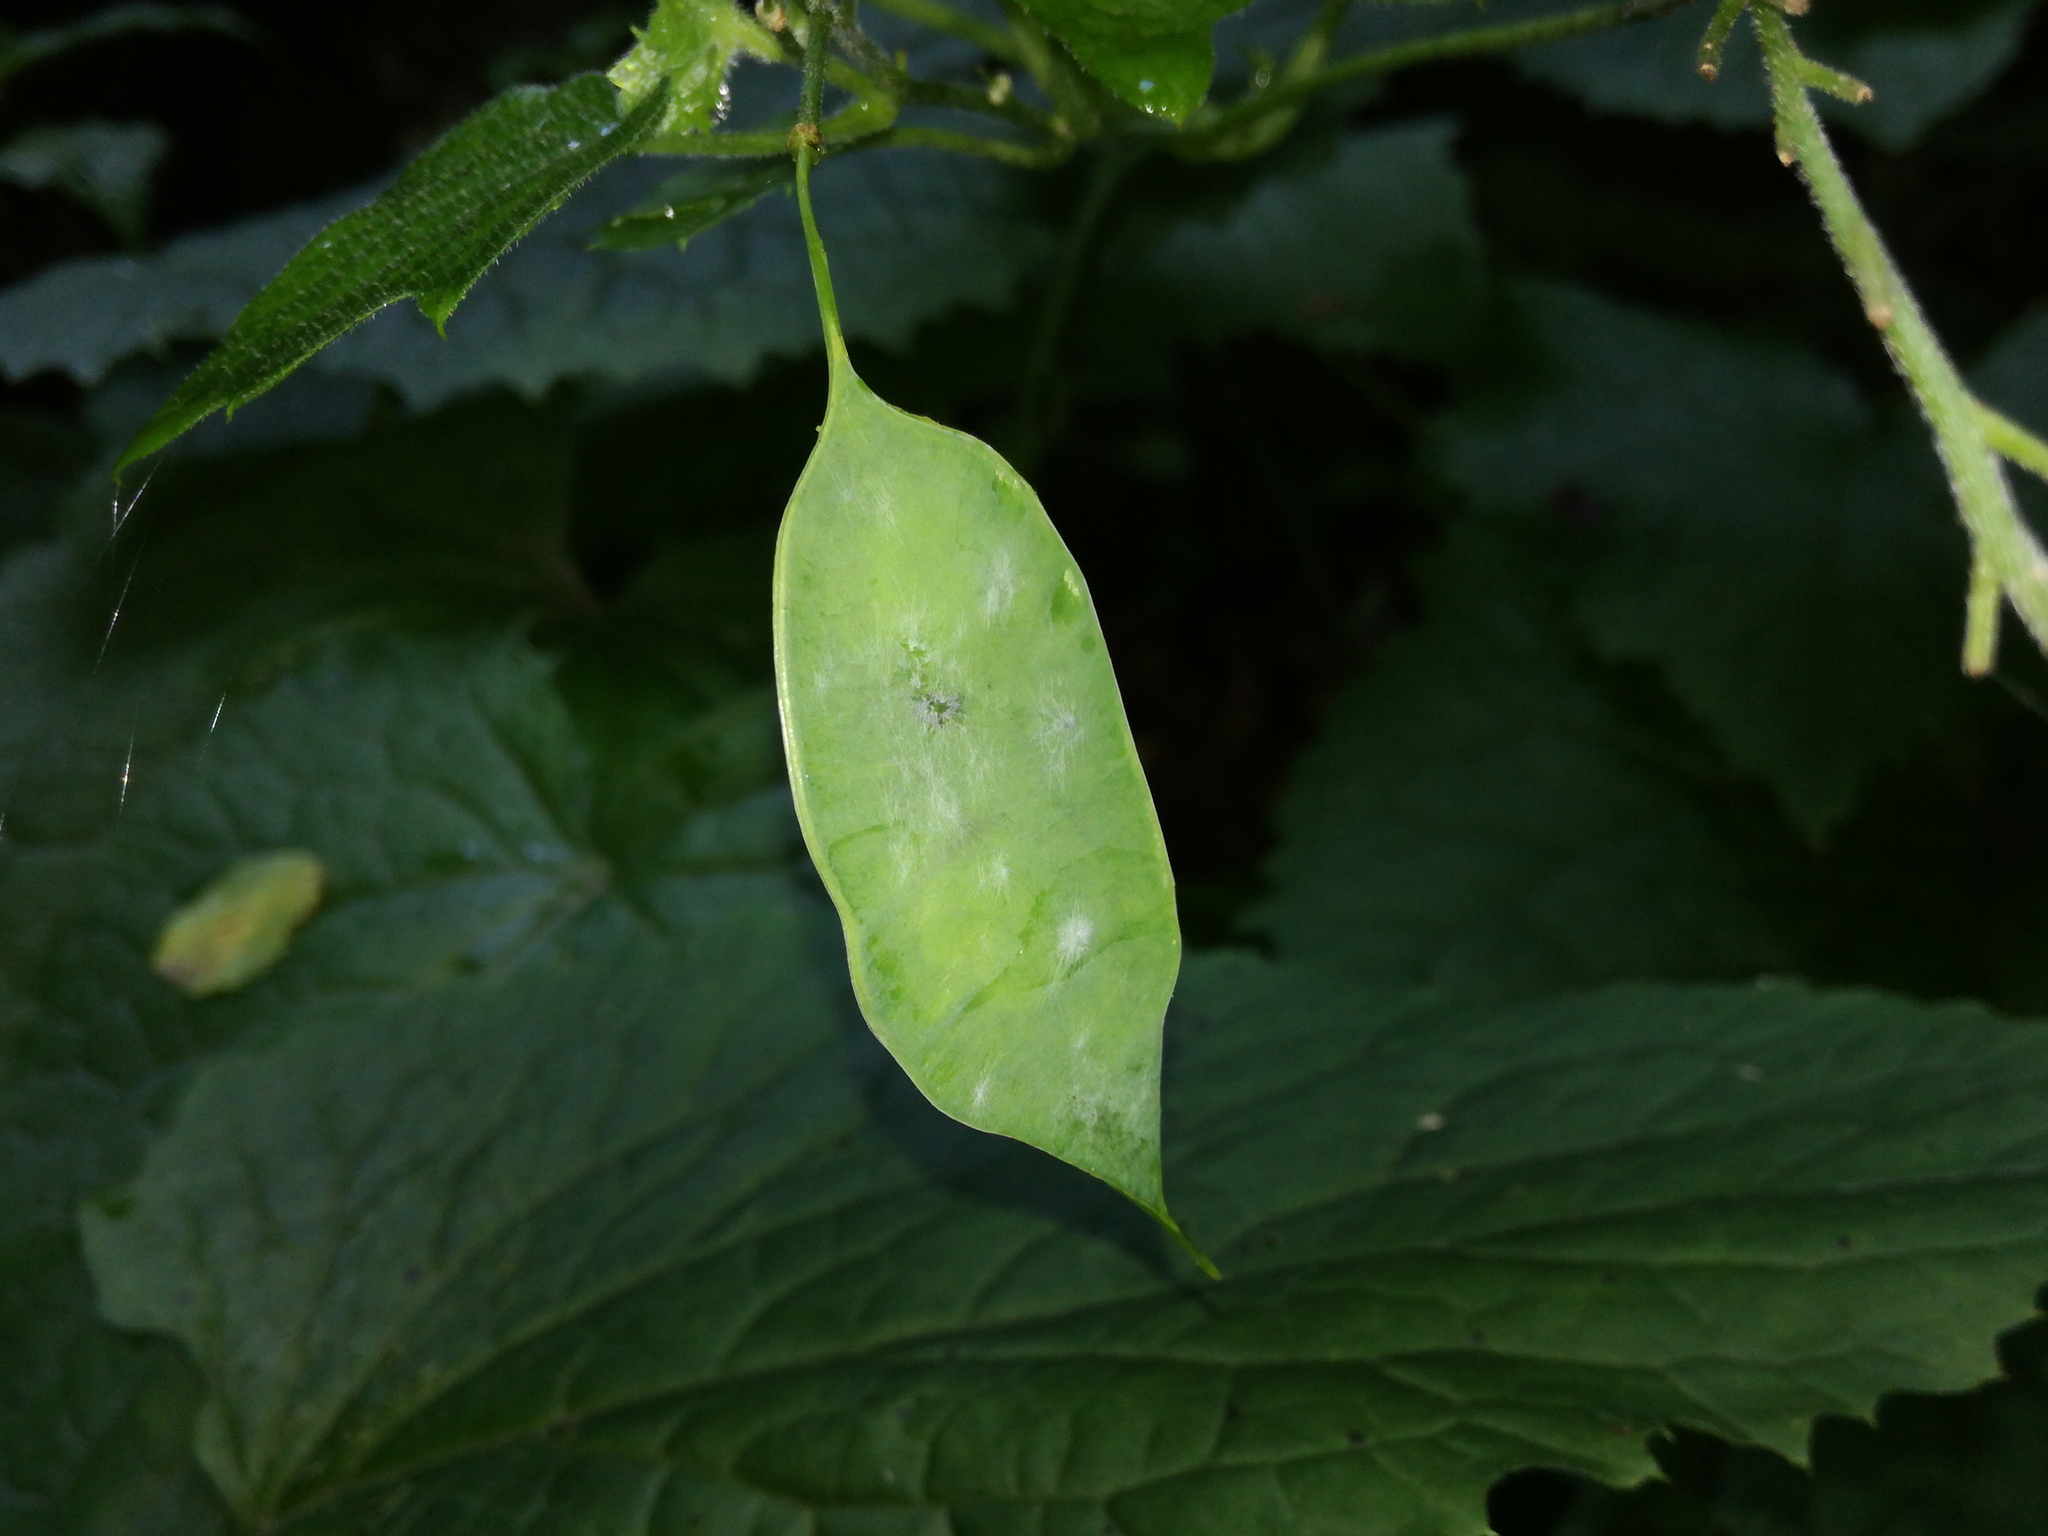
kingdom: Plantae
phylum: Tracheophyta
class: Magnoliopsida
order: Brassicales
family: Brassicaceae
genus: Lunaria
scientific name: Lunaria rediviva
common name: Perennial honesty
